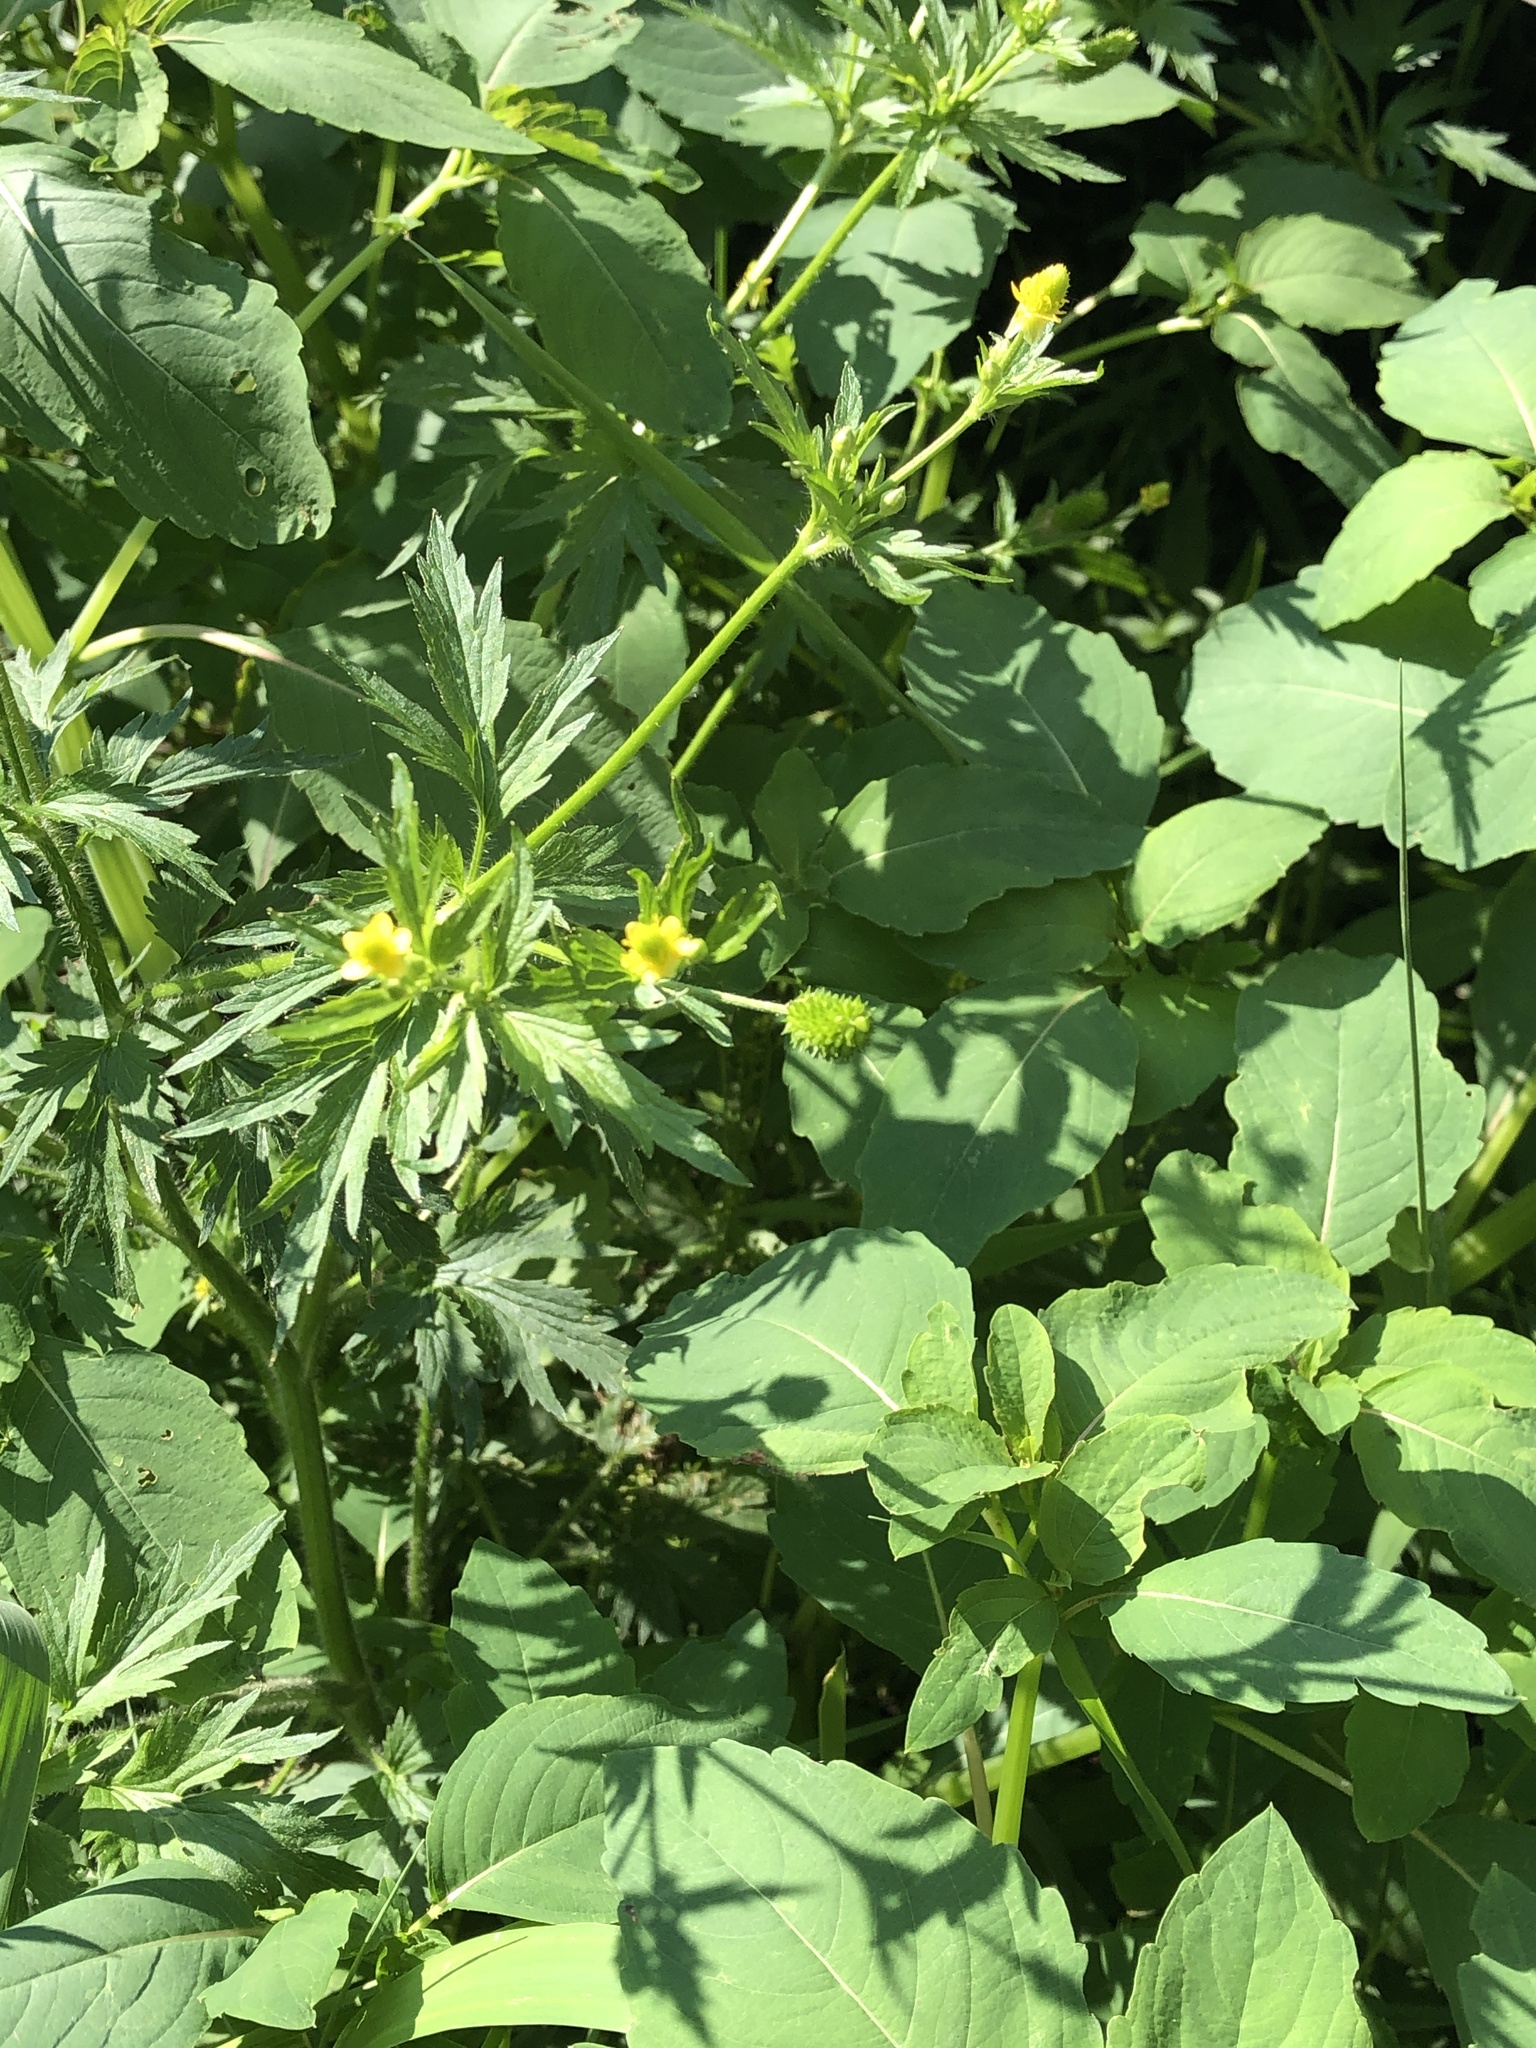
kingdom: Plantae
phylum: Tracheophyta
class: Magnoliopsida
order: Ranunculales
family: Ranunculaceae
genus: Ranunculus
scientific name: Ranunculus pensylvanicus
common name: Bristly buttercup
